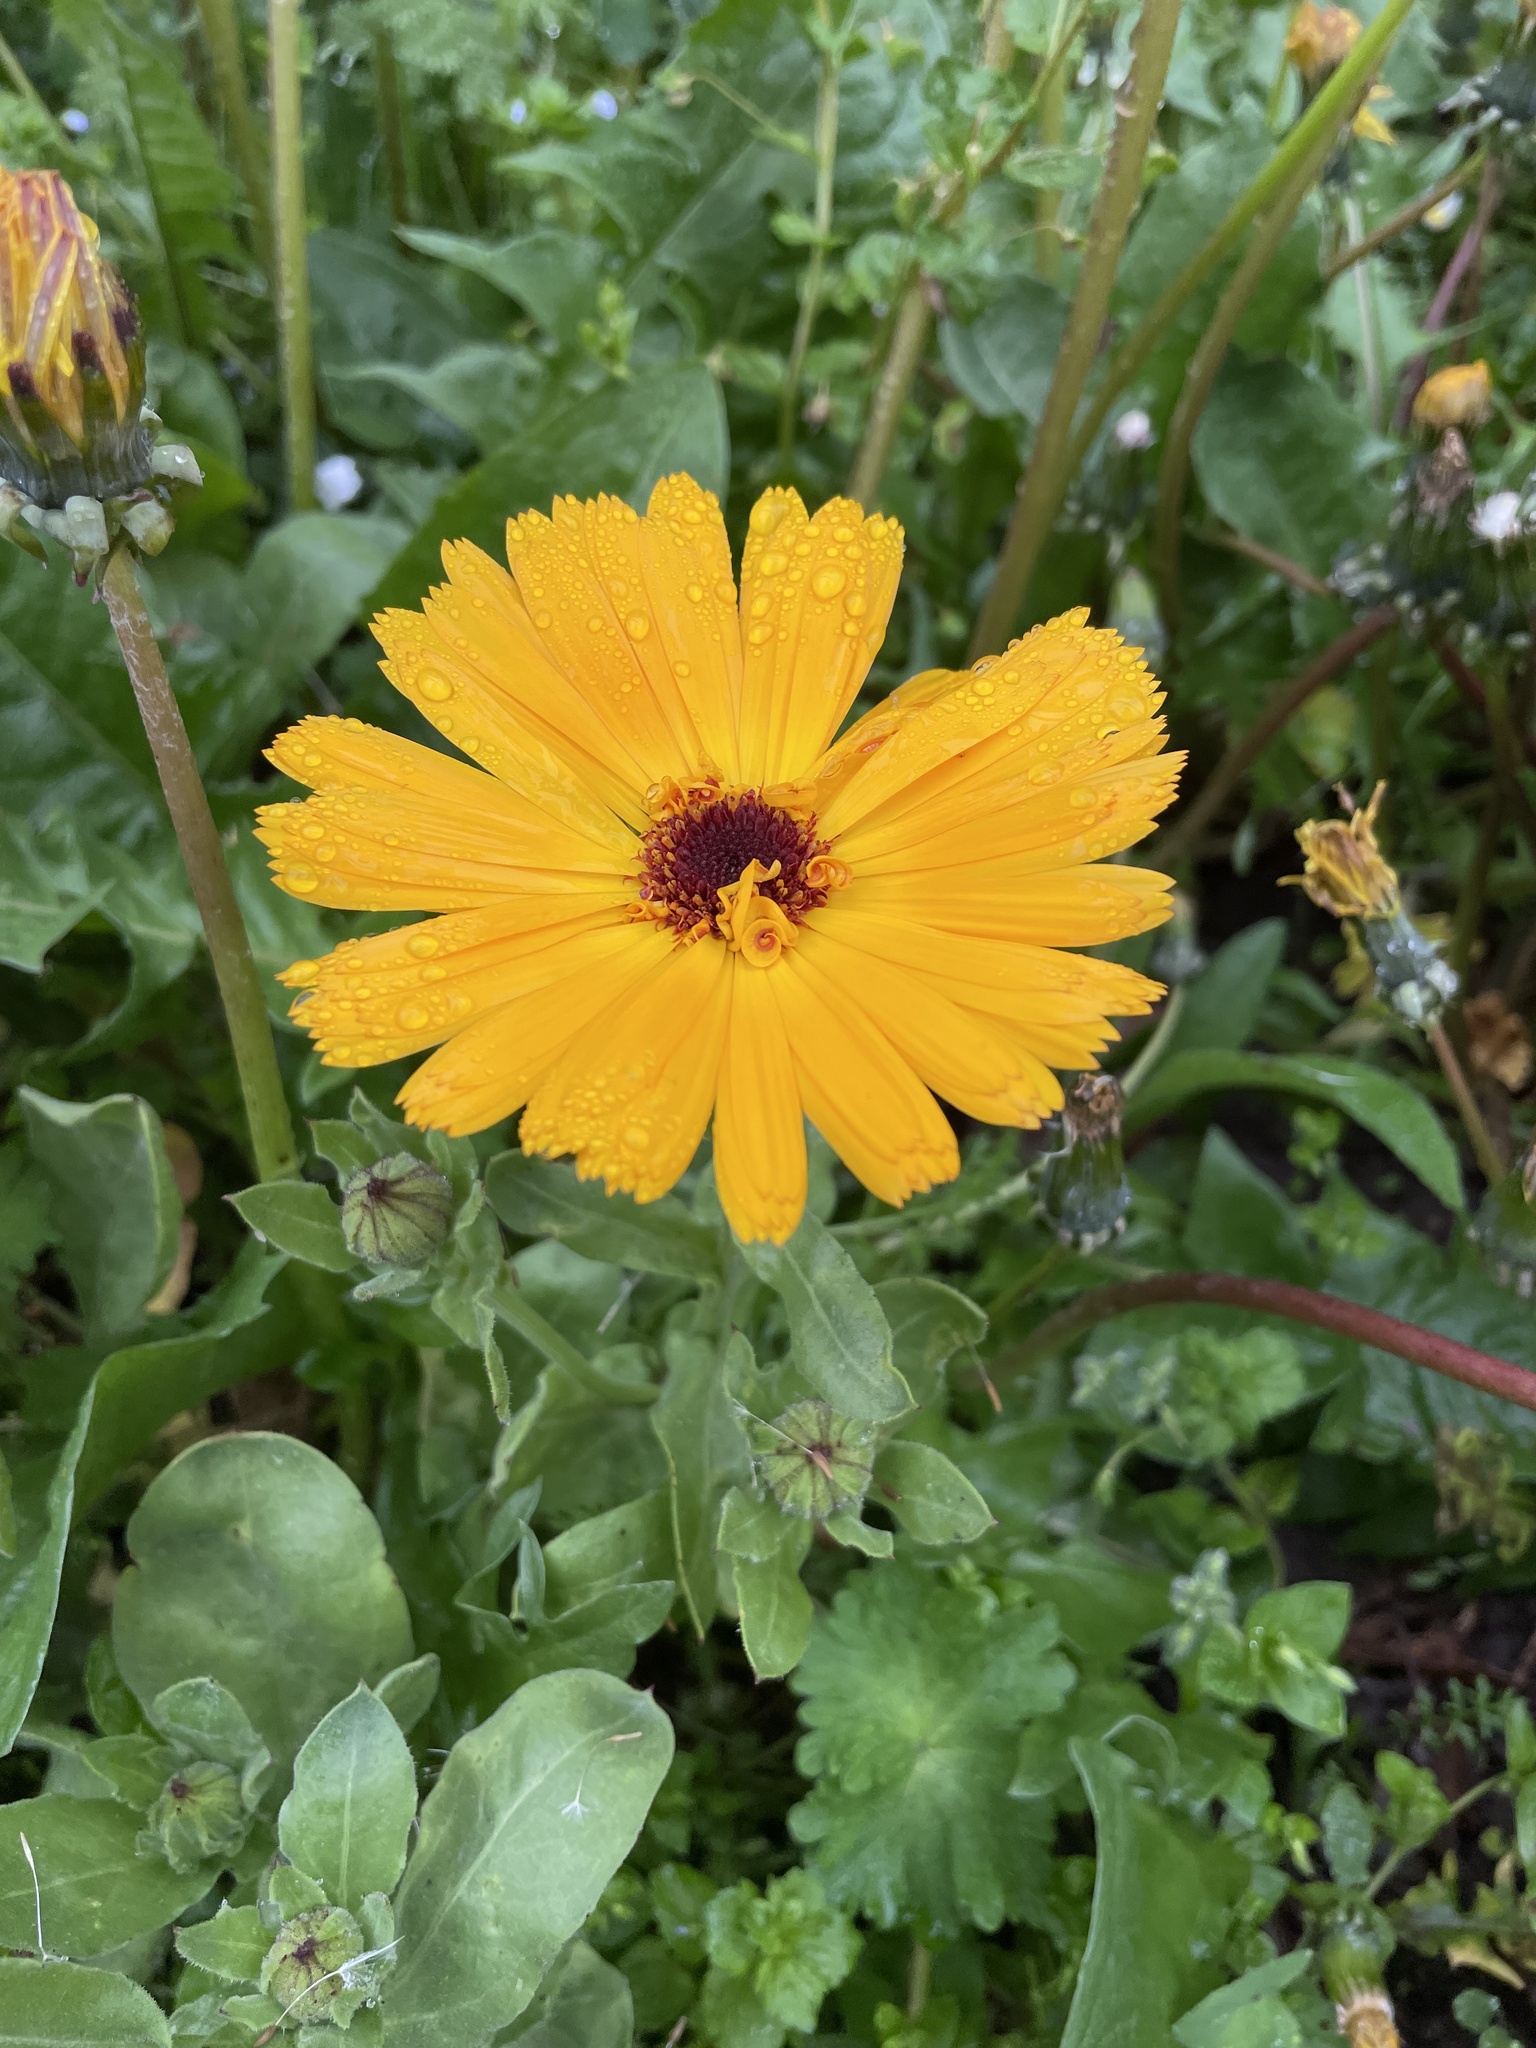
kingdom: Plantae
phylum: Tracheophyta
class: Magnoliopsida
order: Asterales
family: Asteraceae
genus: Calendula
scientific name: Calendula officinalis
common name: Pot marigold
